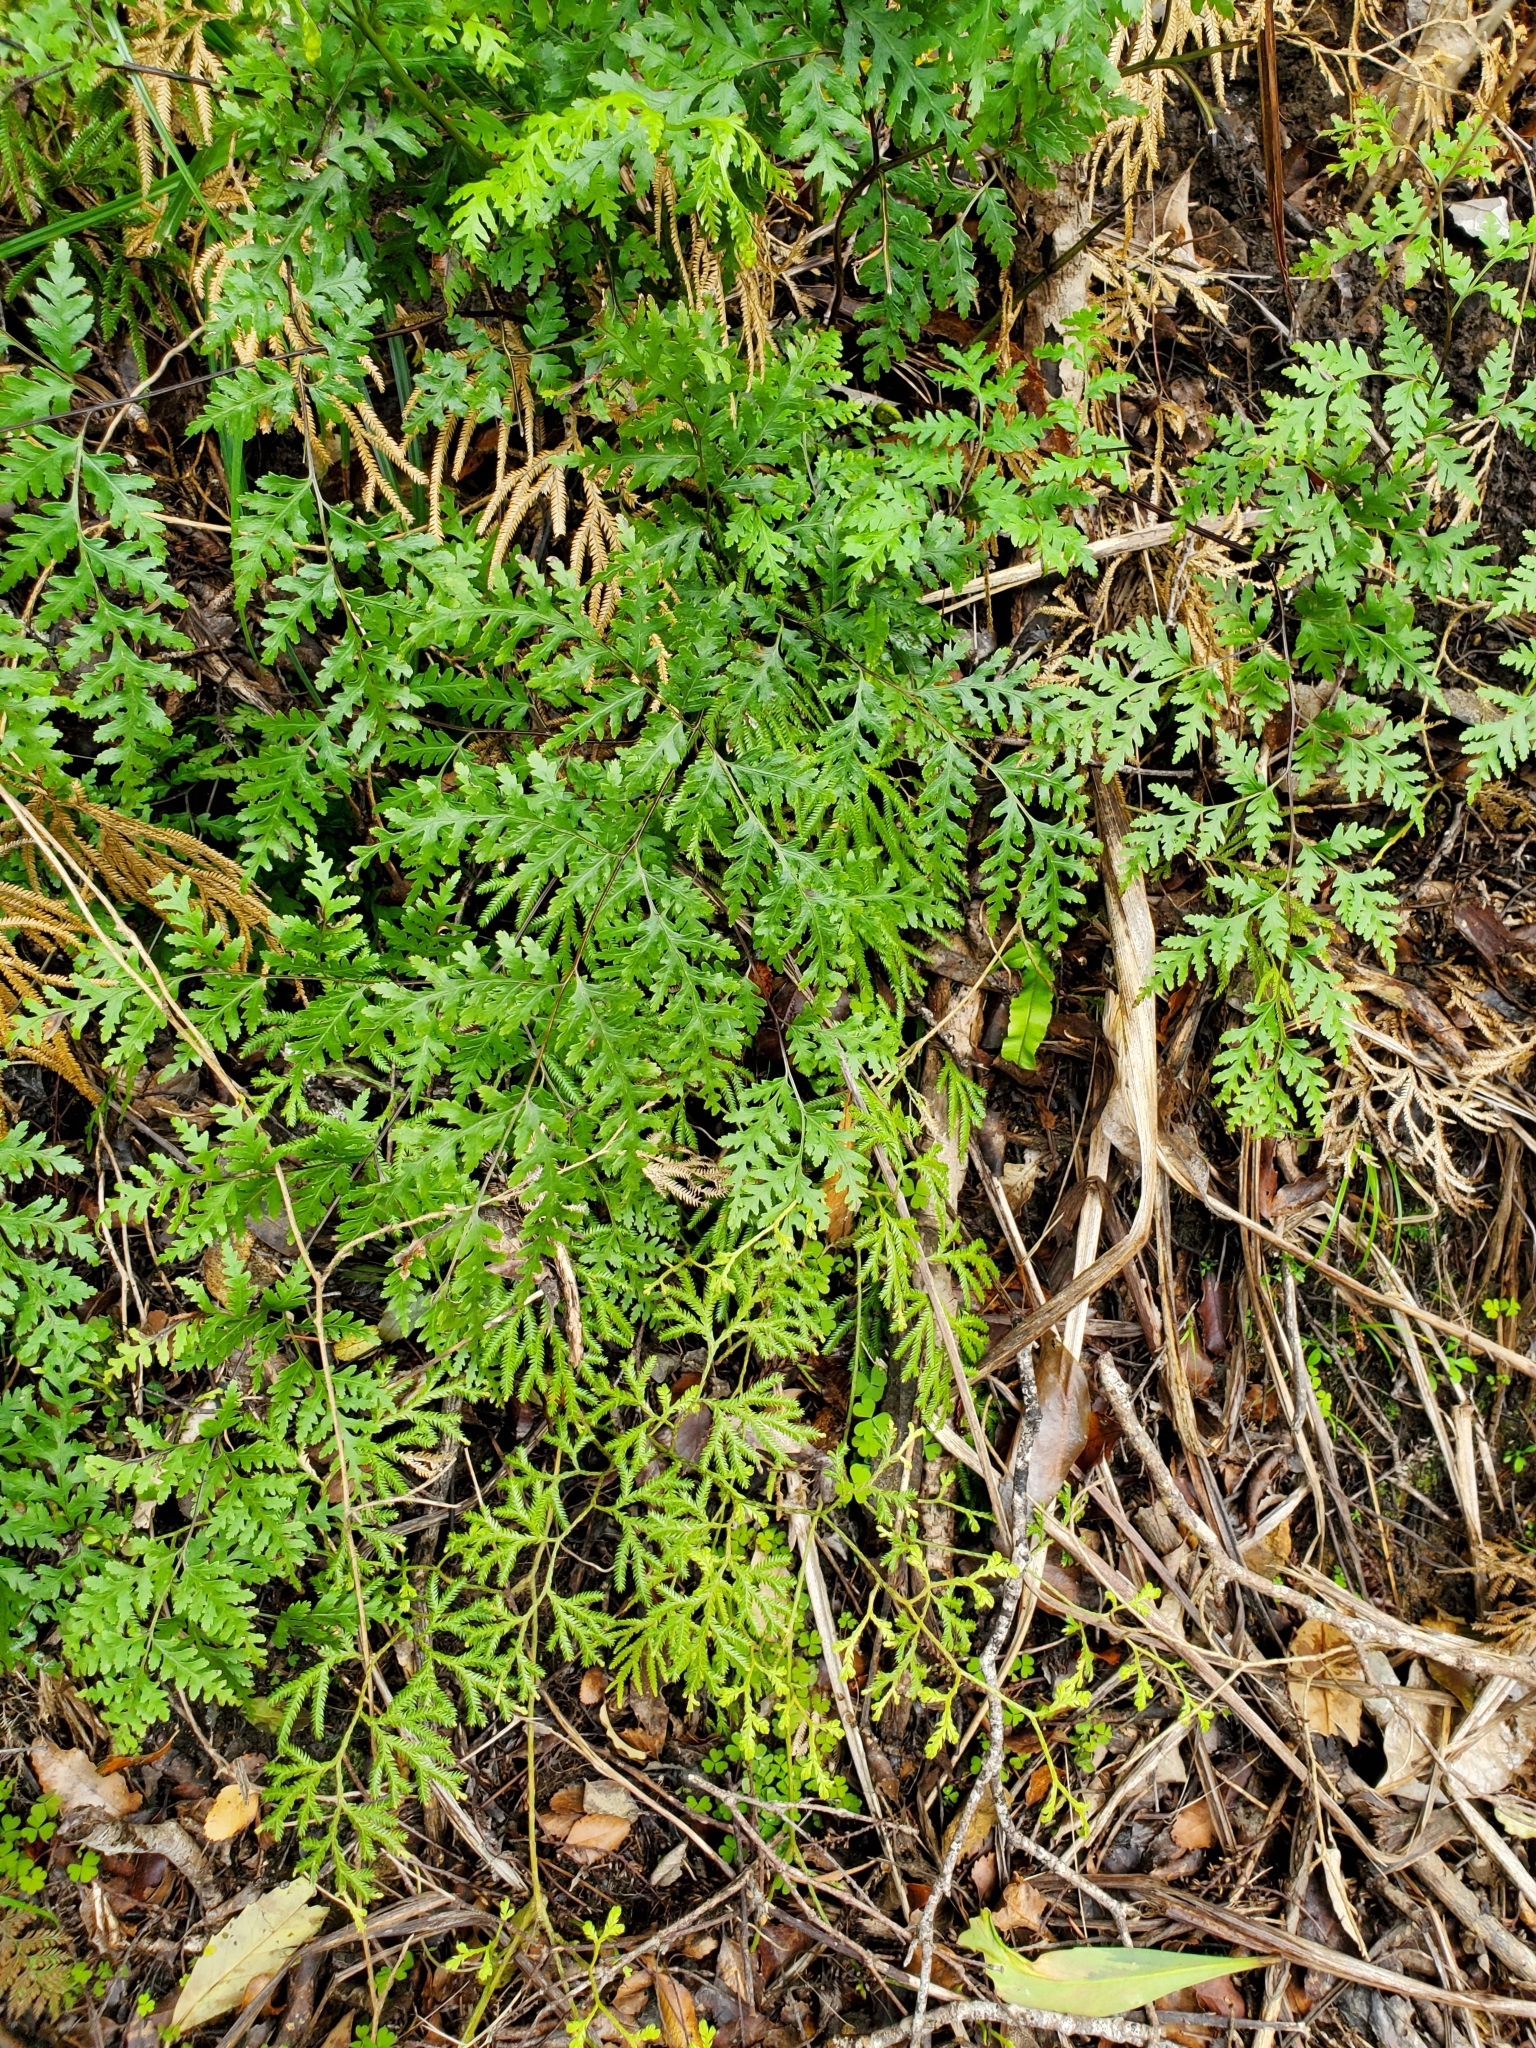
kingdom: Plantae
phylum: Tracheophyta
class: Polypodiopsida
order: Polypodiales
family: Pteridaceae
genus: Pteris
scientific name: Pteris macilenta
